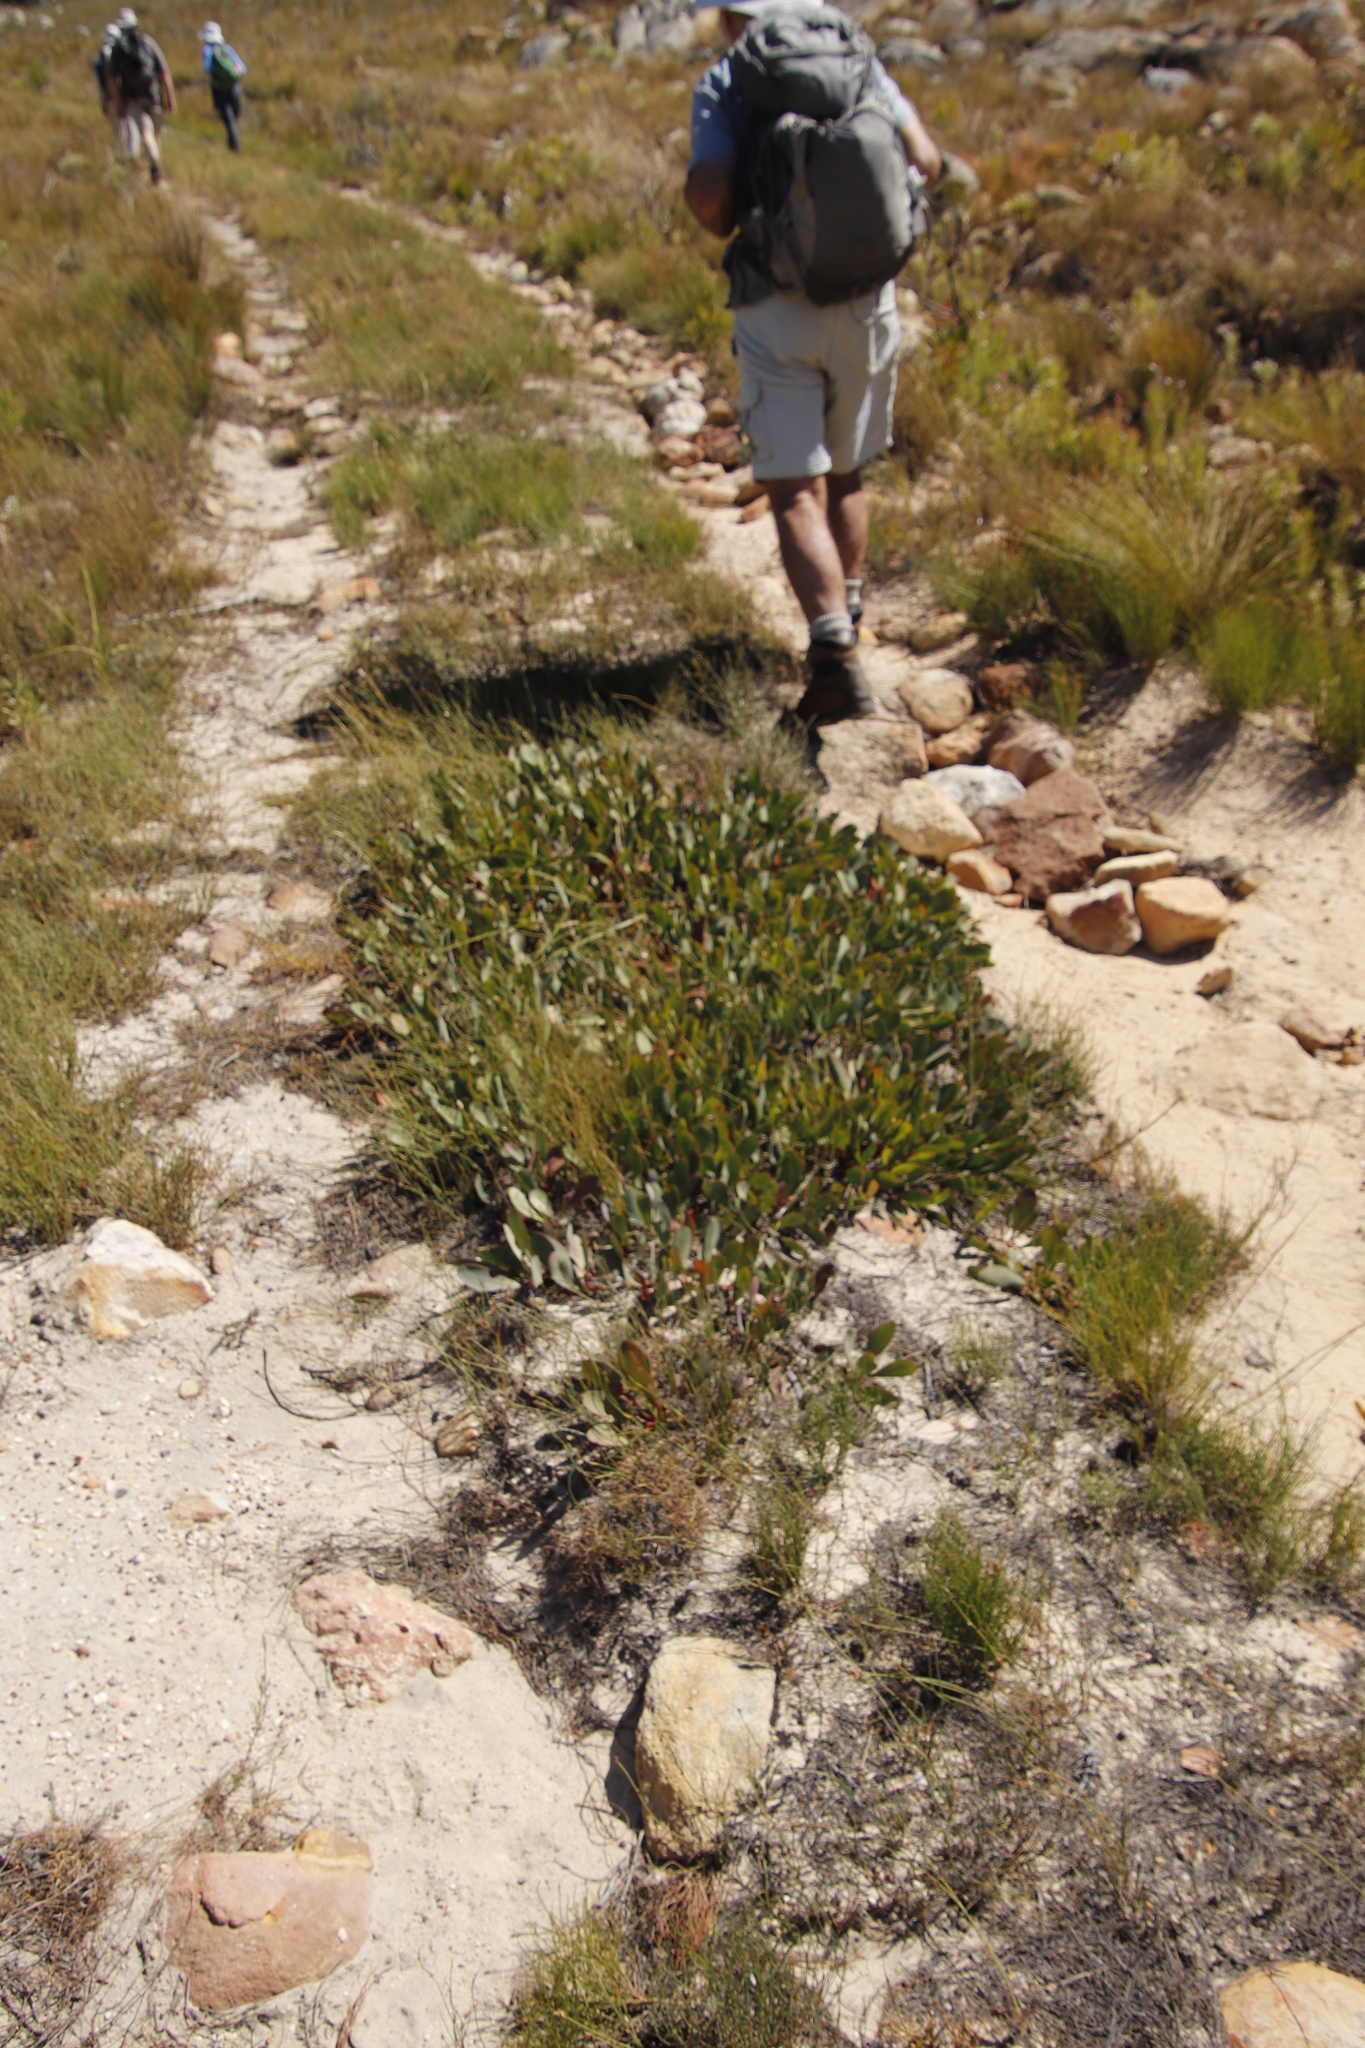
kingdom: Plantae
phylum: Tracheophyta
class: Magnoliopsida
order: Proteales
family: Proteaceae
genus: Protea
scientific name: Protea acaulos
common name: Common ground sugarbush
